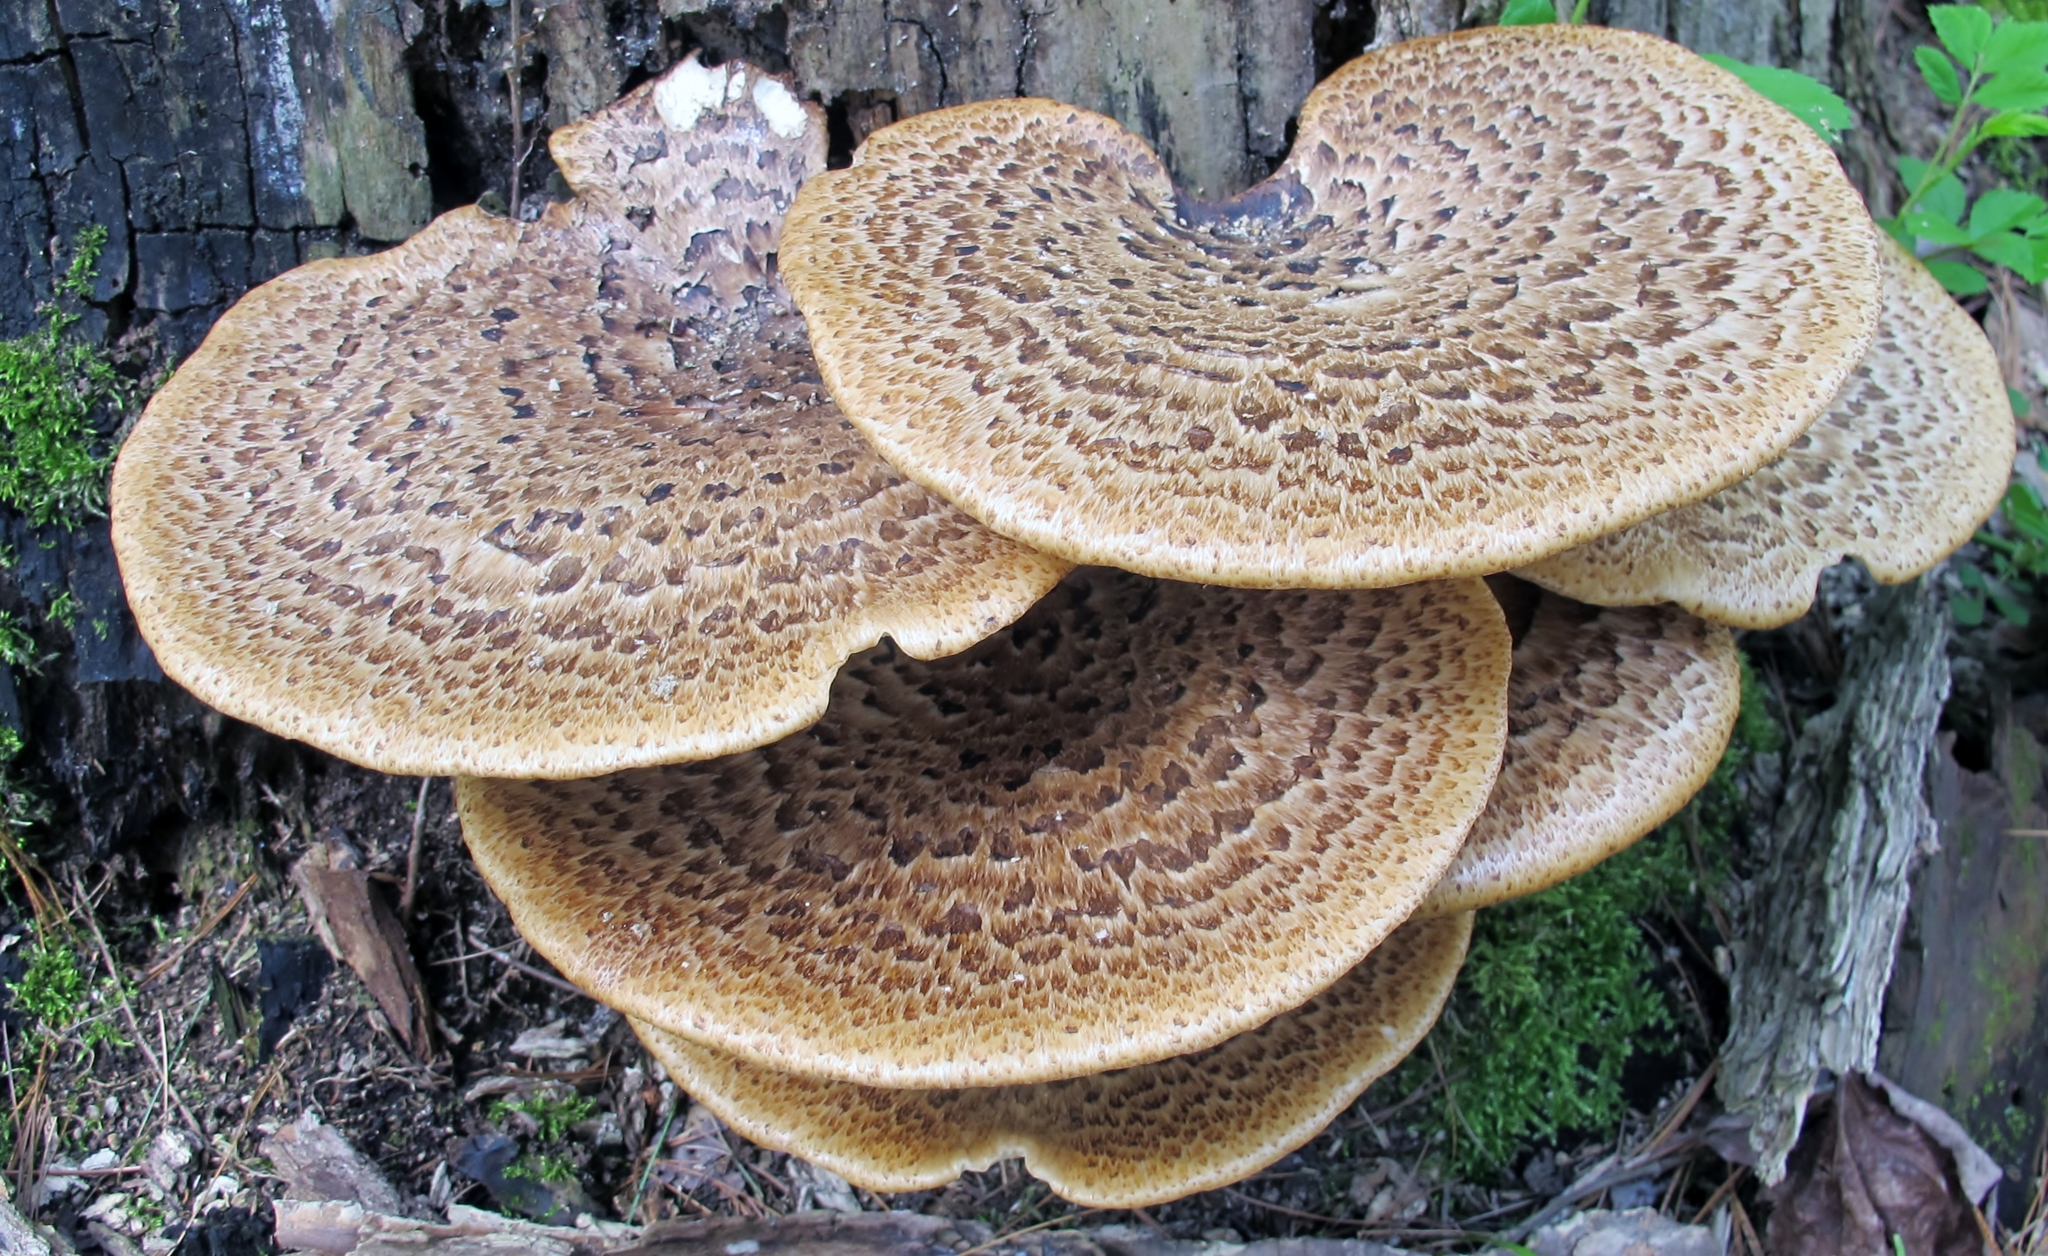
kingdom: Fungi
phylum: Basidiomycota
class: Agaricomycetes
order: Polyporales
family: Polyporaceae
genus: Cerioporus
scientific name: Cerioporus squamosus
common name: Dryad's saddle
